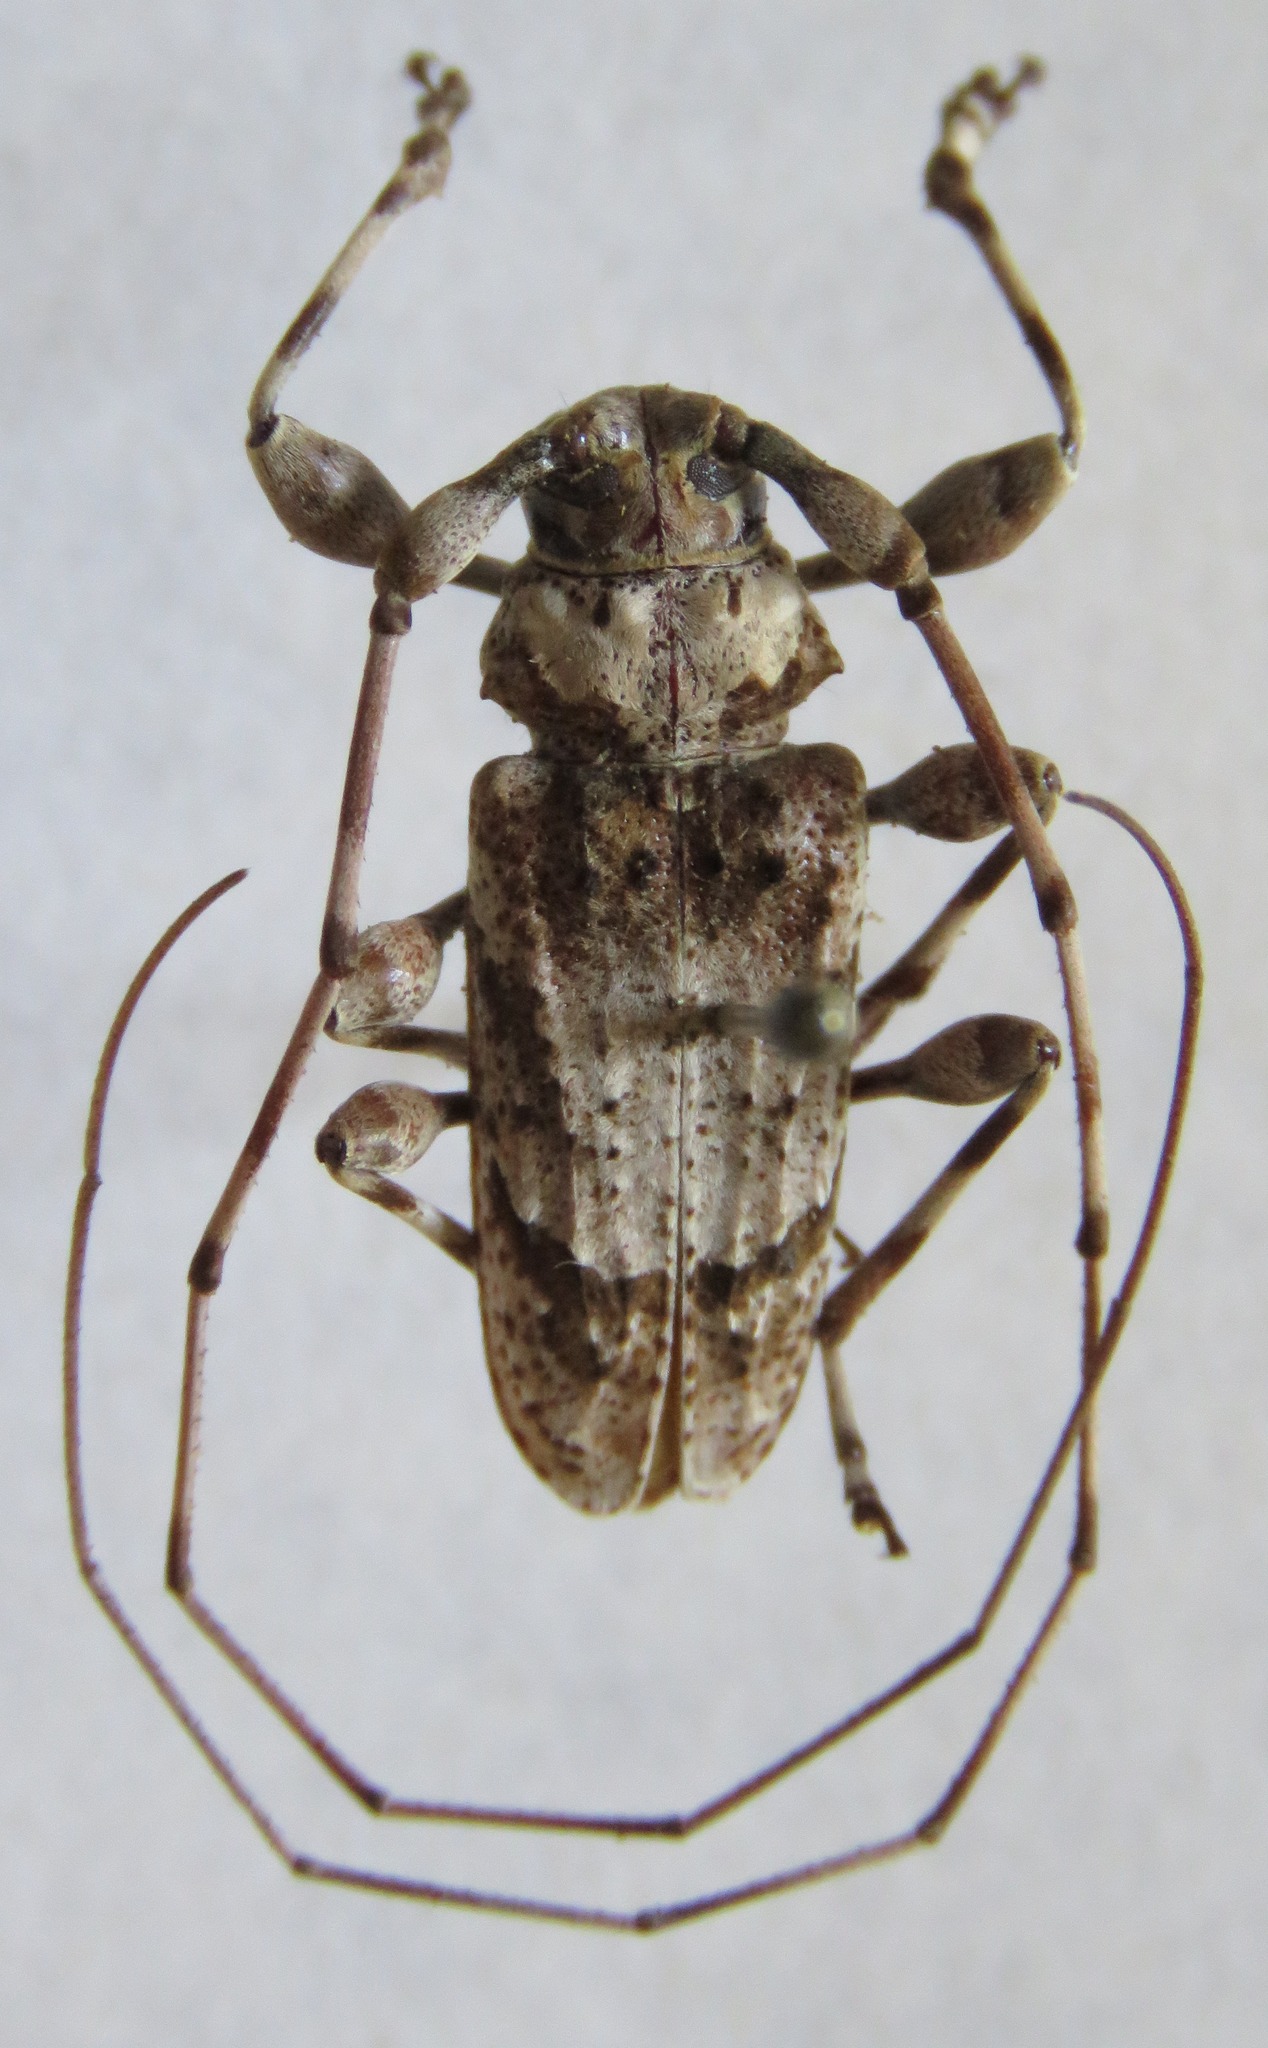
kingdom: Animalia
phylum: Arthropoda
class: Insecta
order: Coleoptera
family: Cerambycidae
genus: Olenosus
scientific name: Olenosus serrimanus
